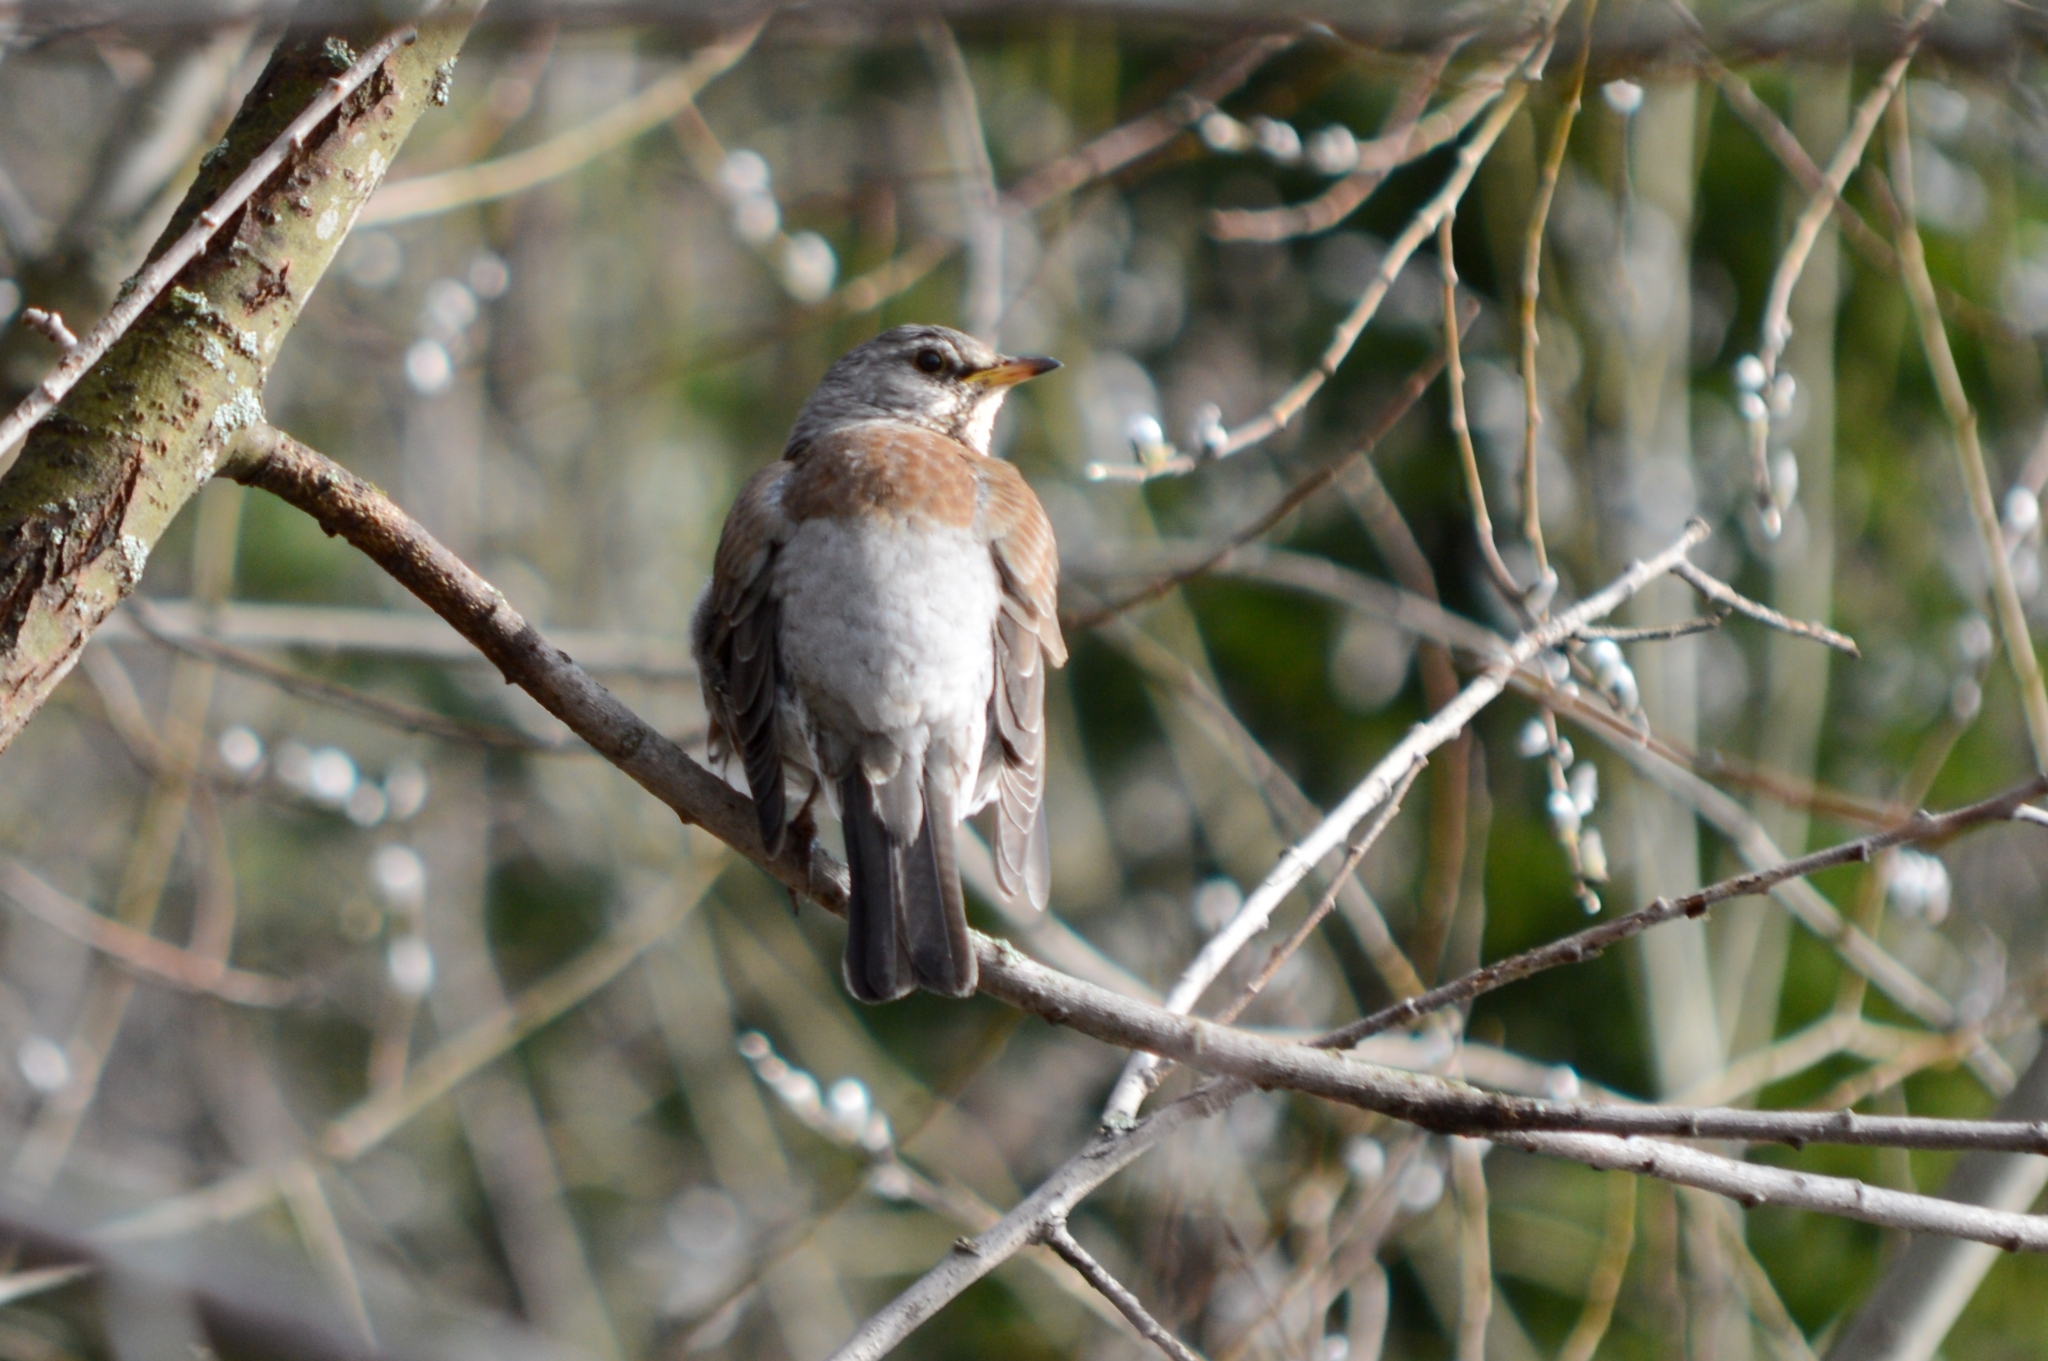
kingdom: Animalia
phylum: Chordata
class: Aves
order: Passeriformes
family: Turdidae
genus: Turdus
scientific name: Turdus pilaris
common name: Fieldfare
